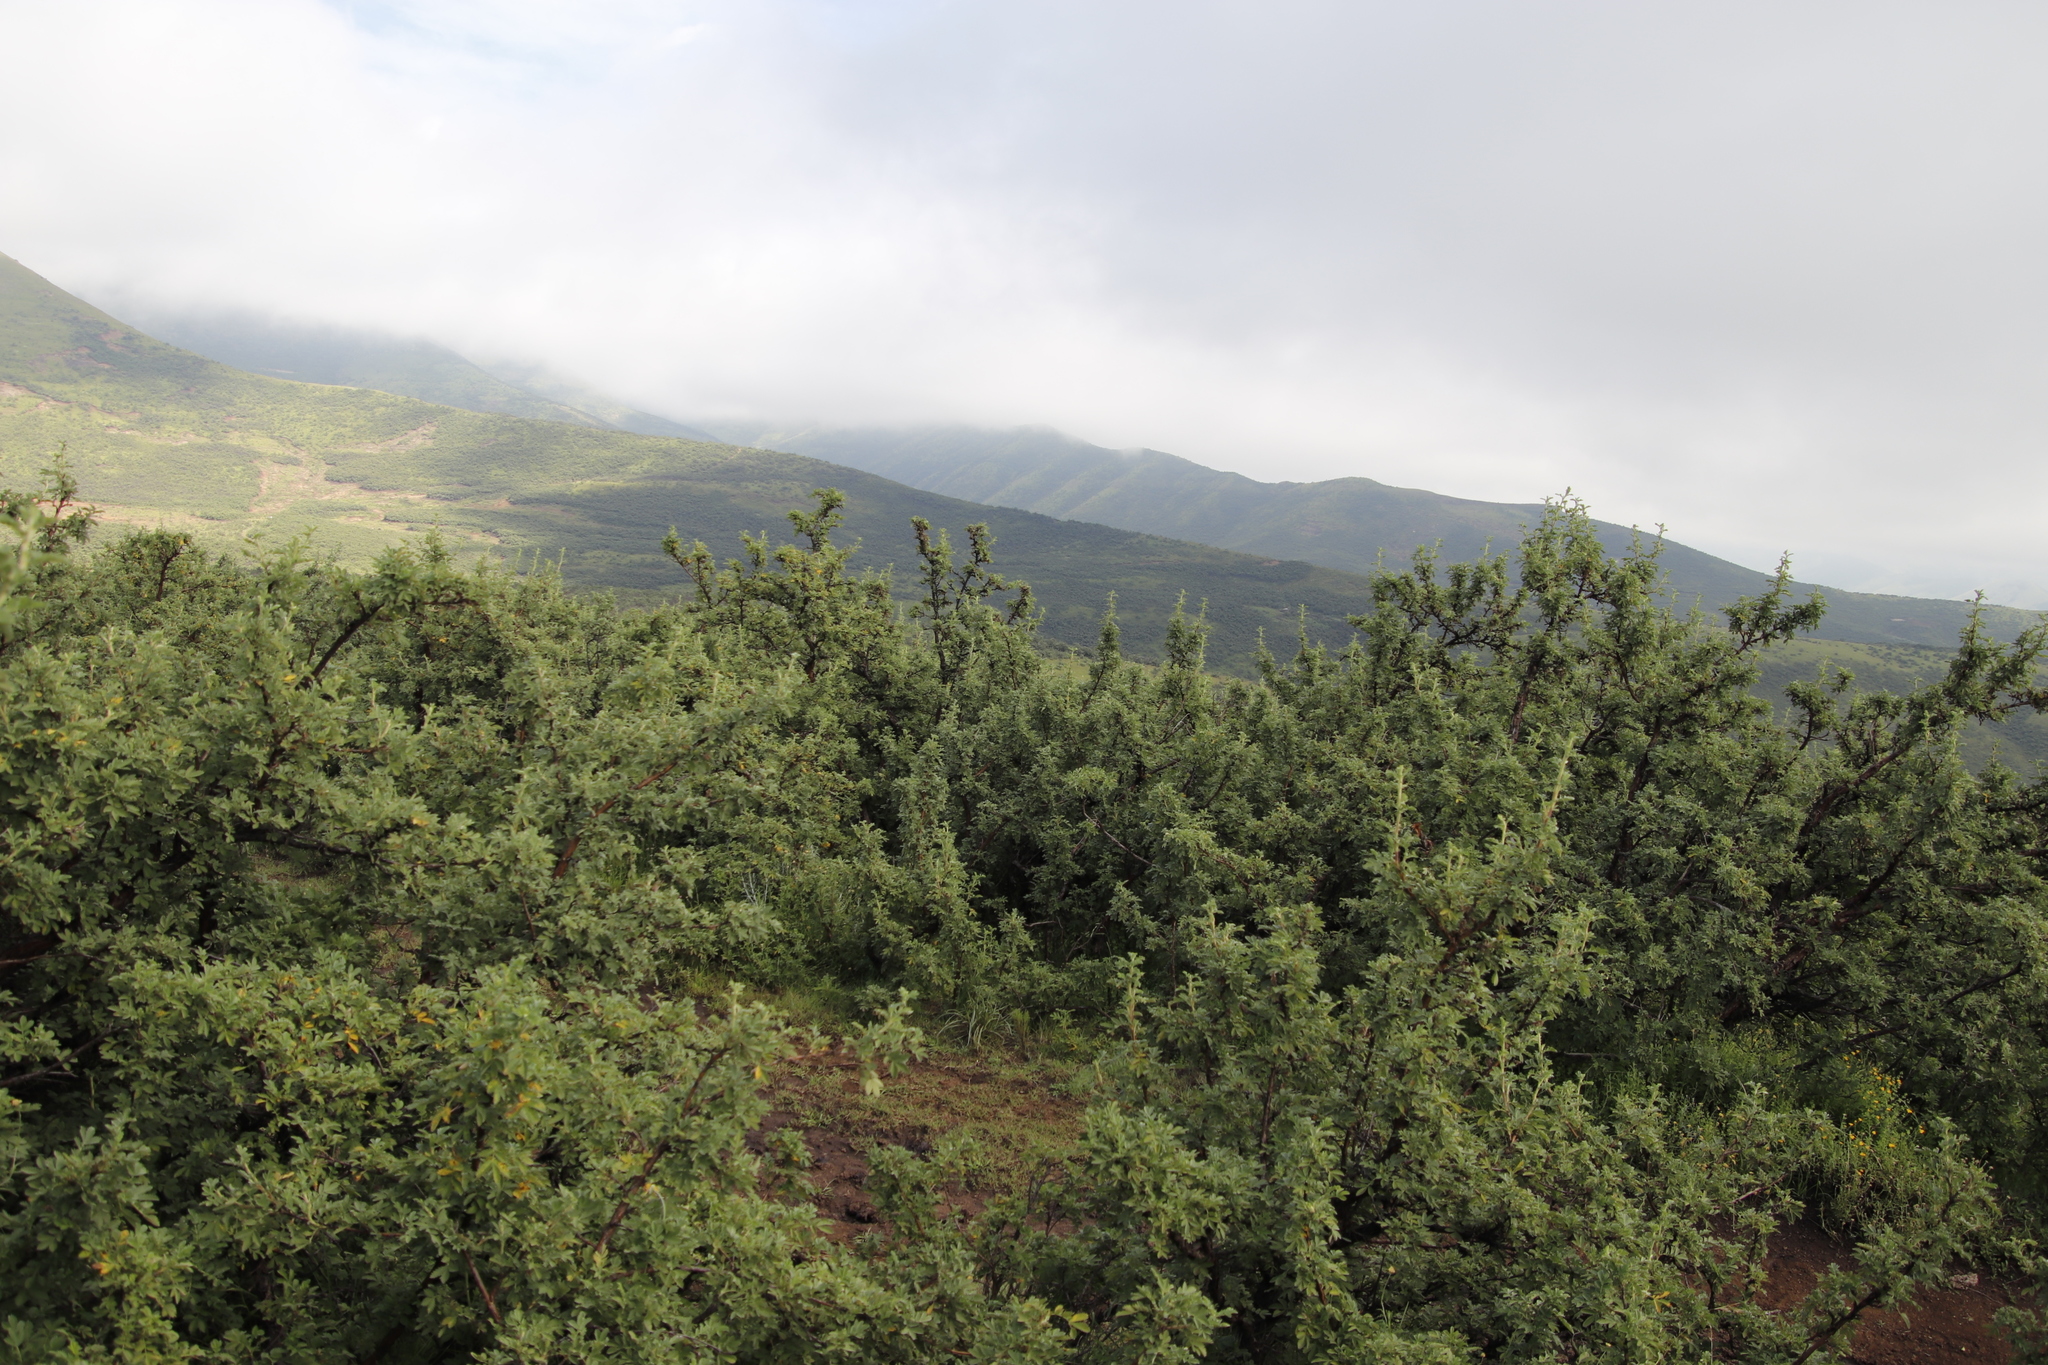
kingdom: Plantae
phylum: Tracheophyta
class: Magnoliopsida
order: Rosales
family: Rosaceae
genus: Leucosidea
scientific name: Leucosidea sericea
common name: Oldwood
